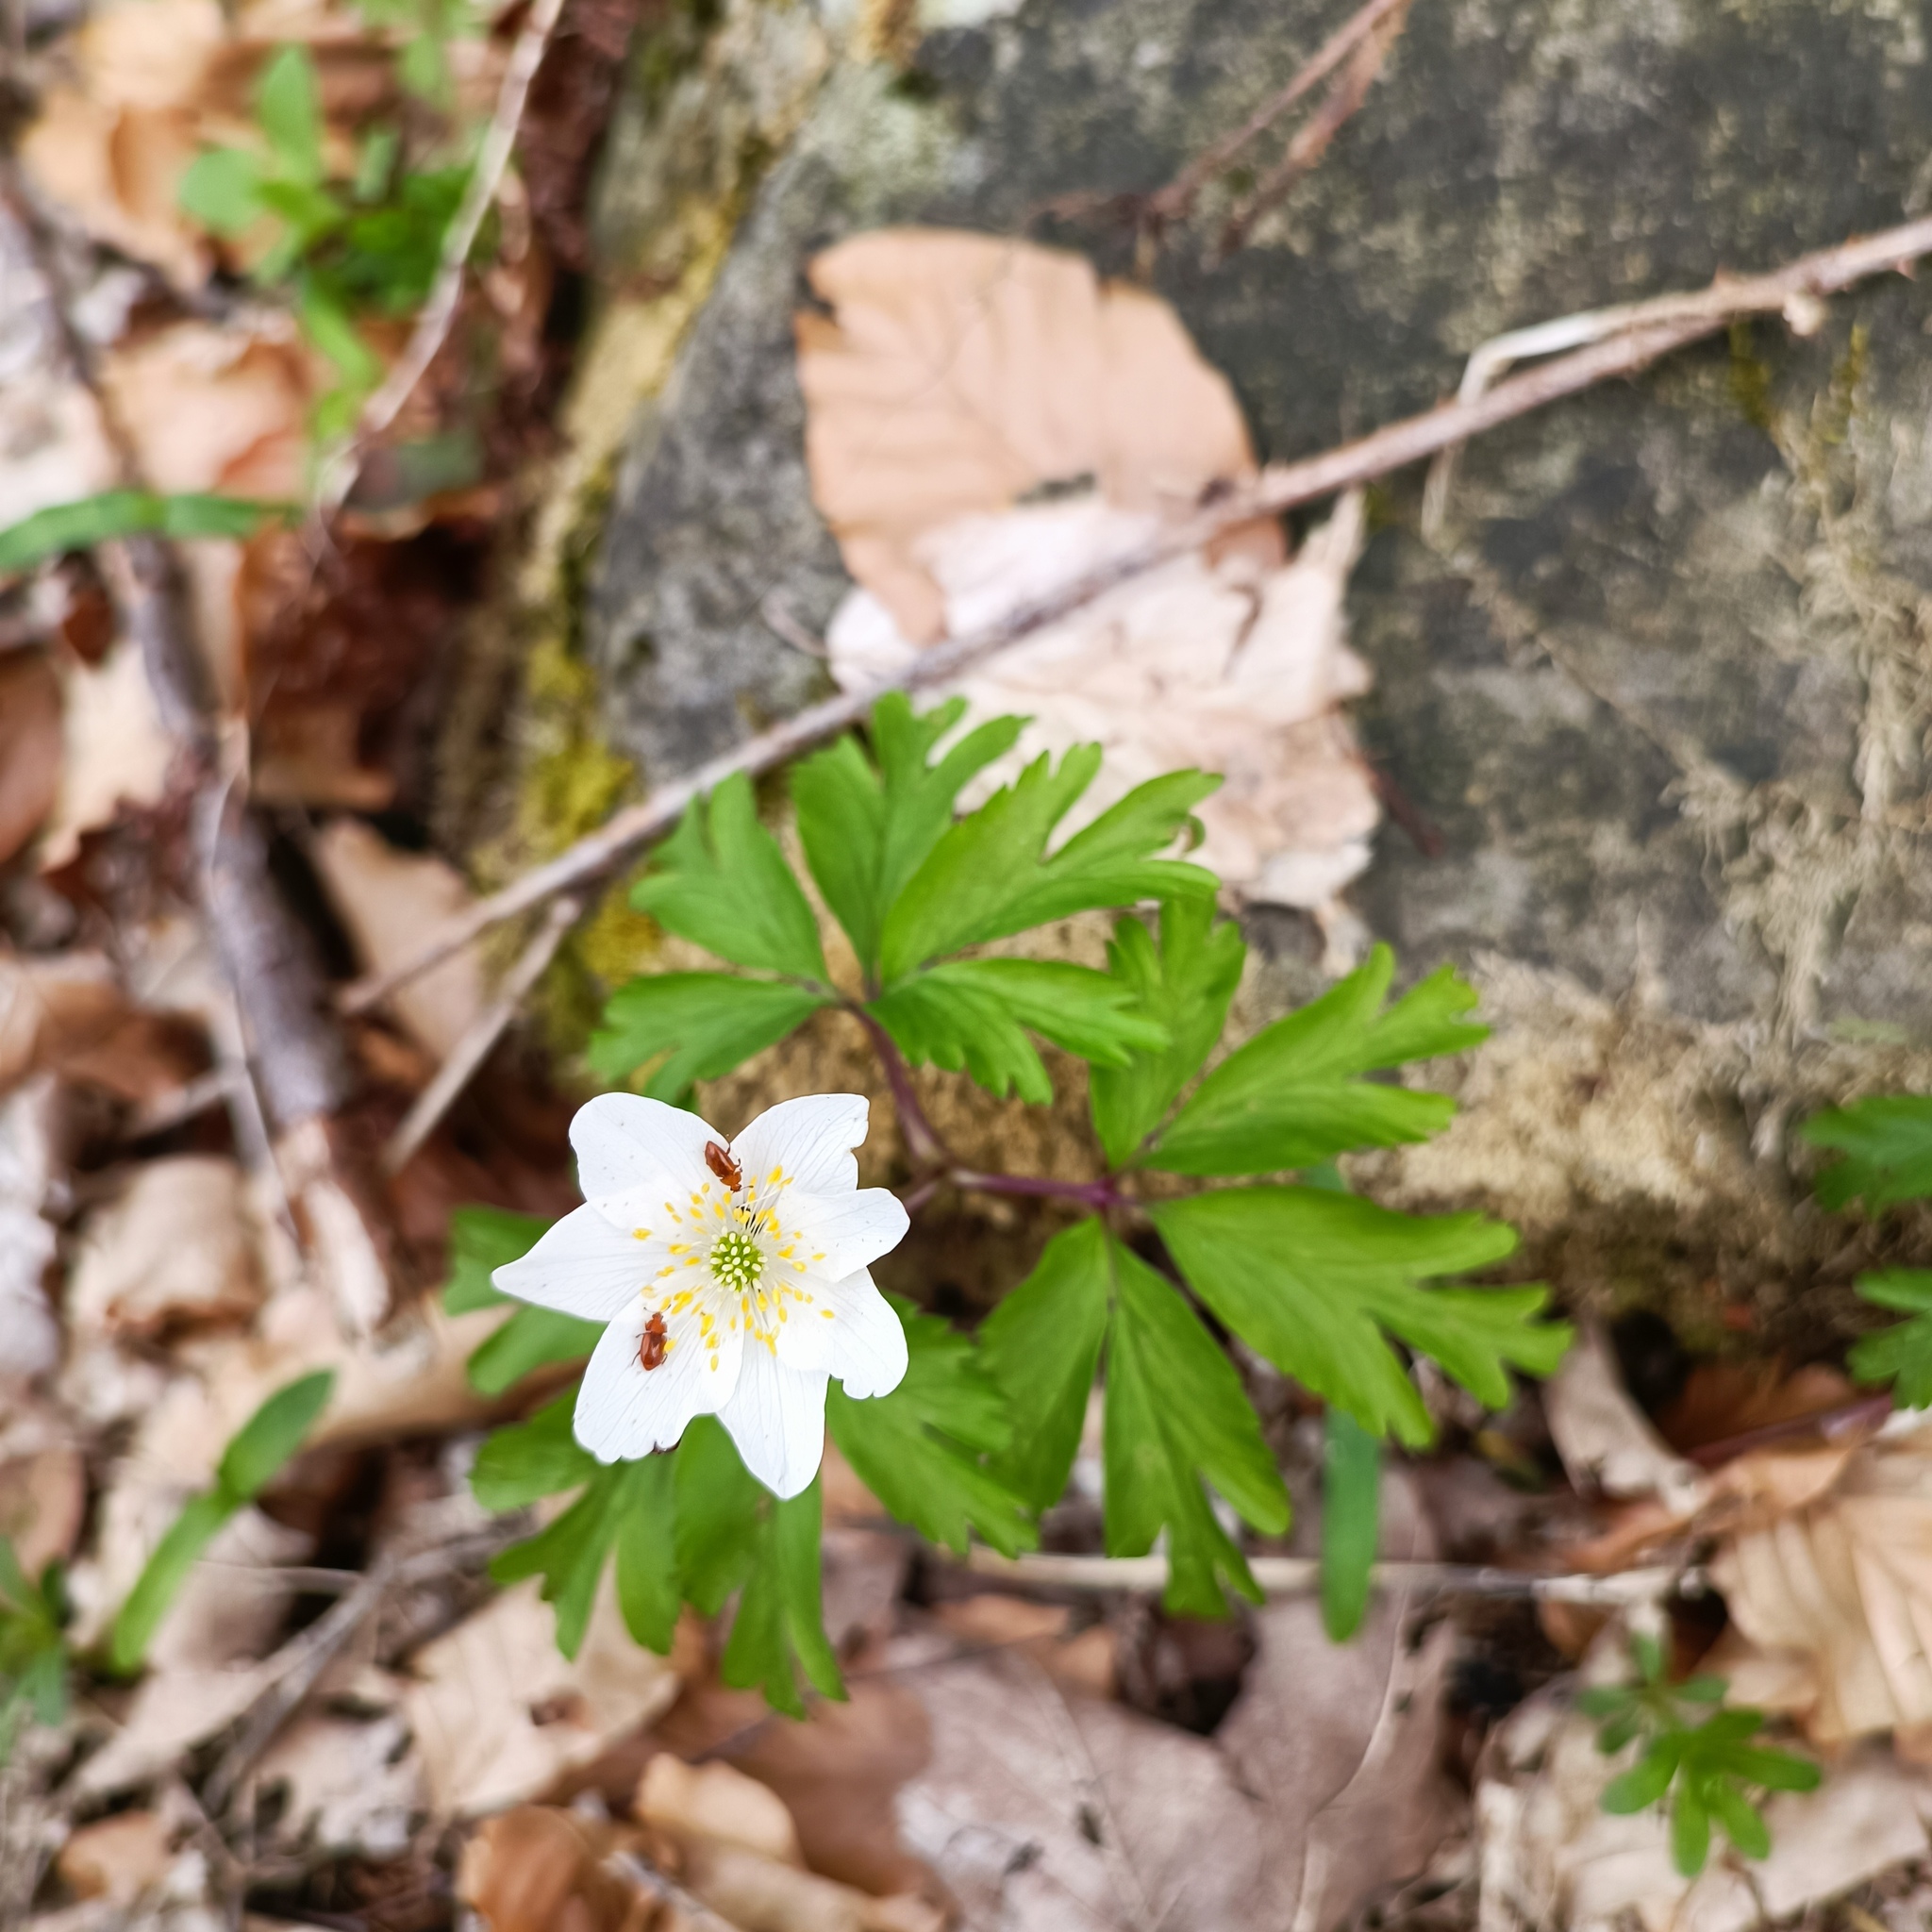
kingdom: Plantae
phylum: Tracheophyta
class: Magnoliopsida
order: Ranunculales
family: Ranunculaceae
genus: Anemone
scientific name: Anemone nemorosa
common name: Wood anemone
